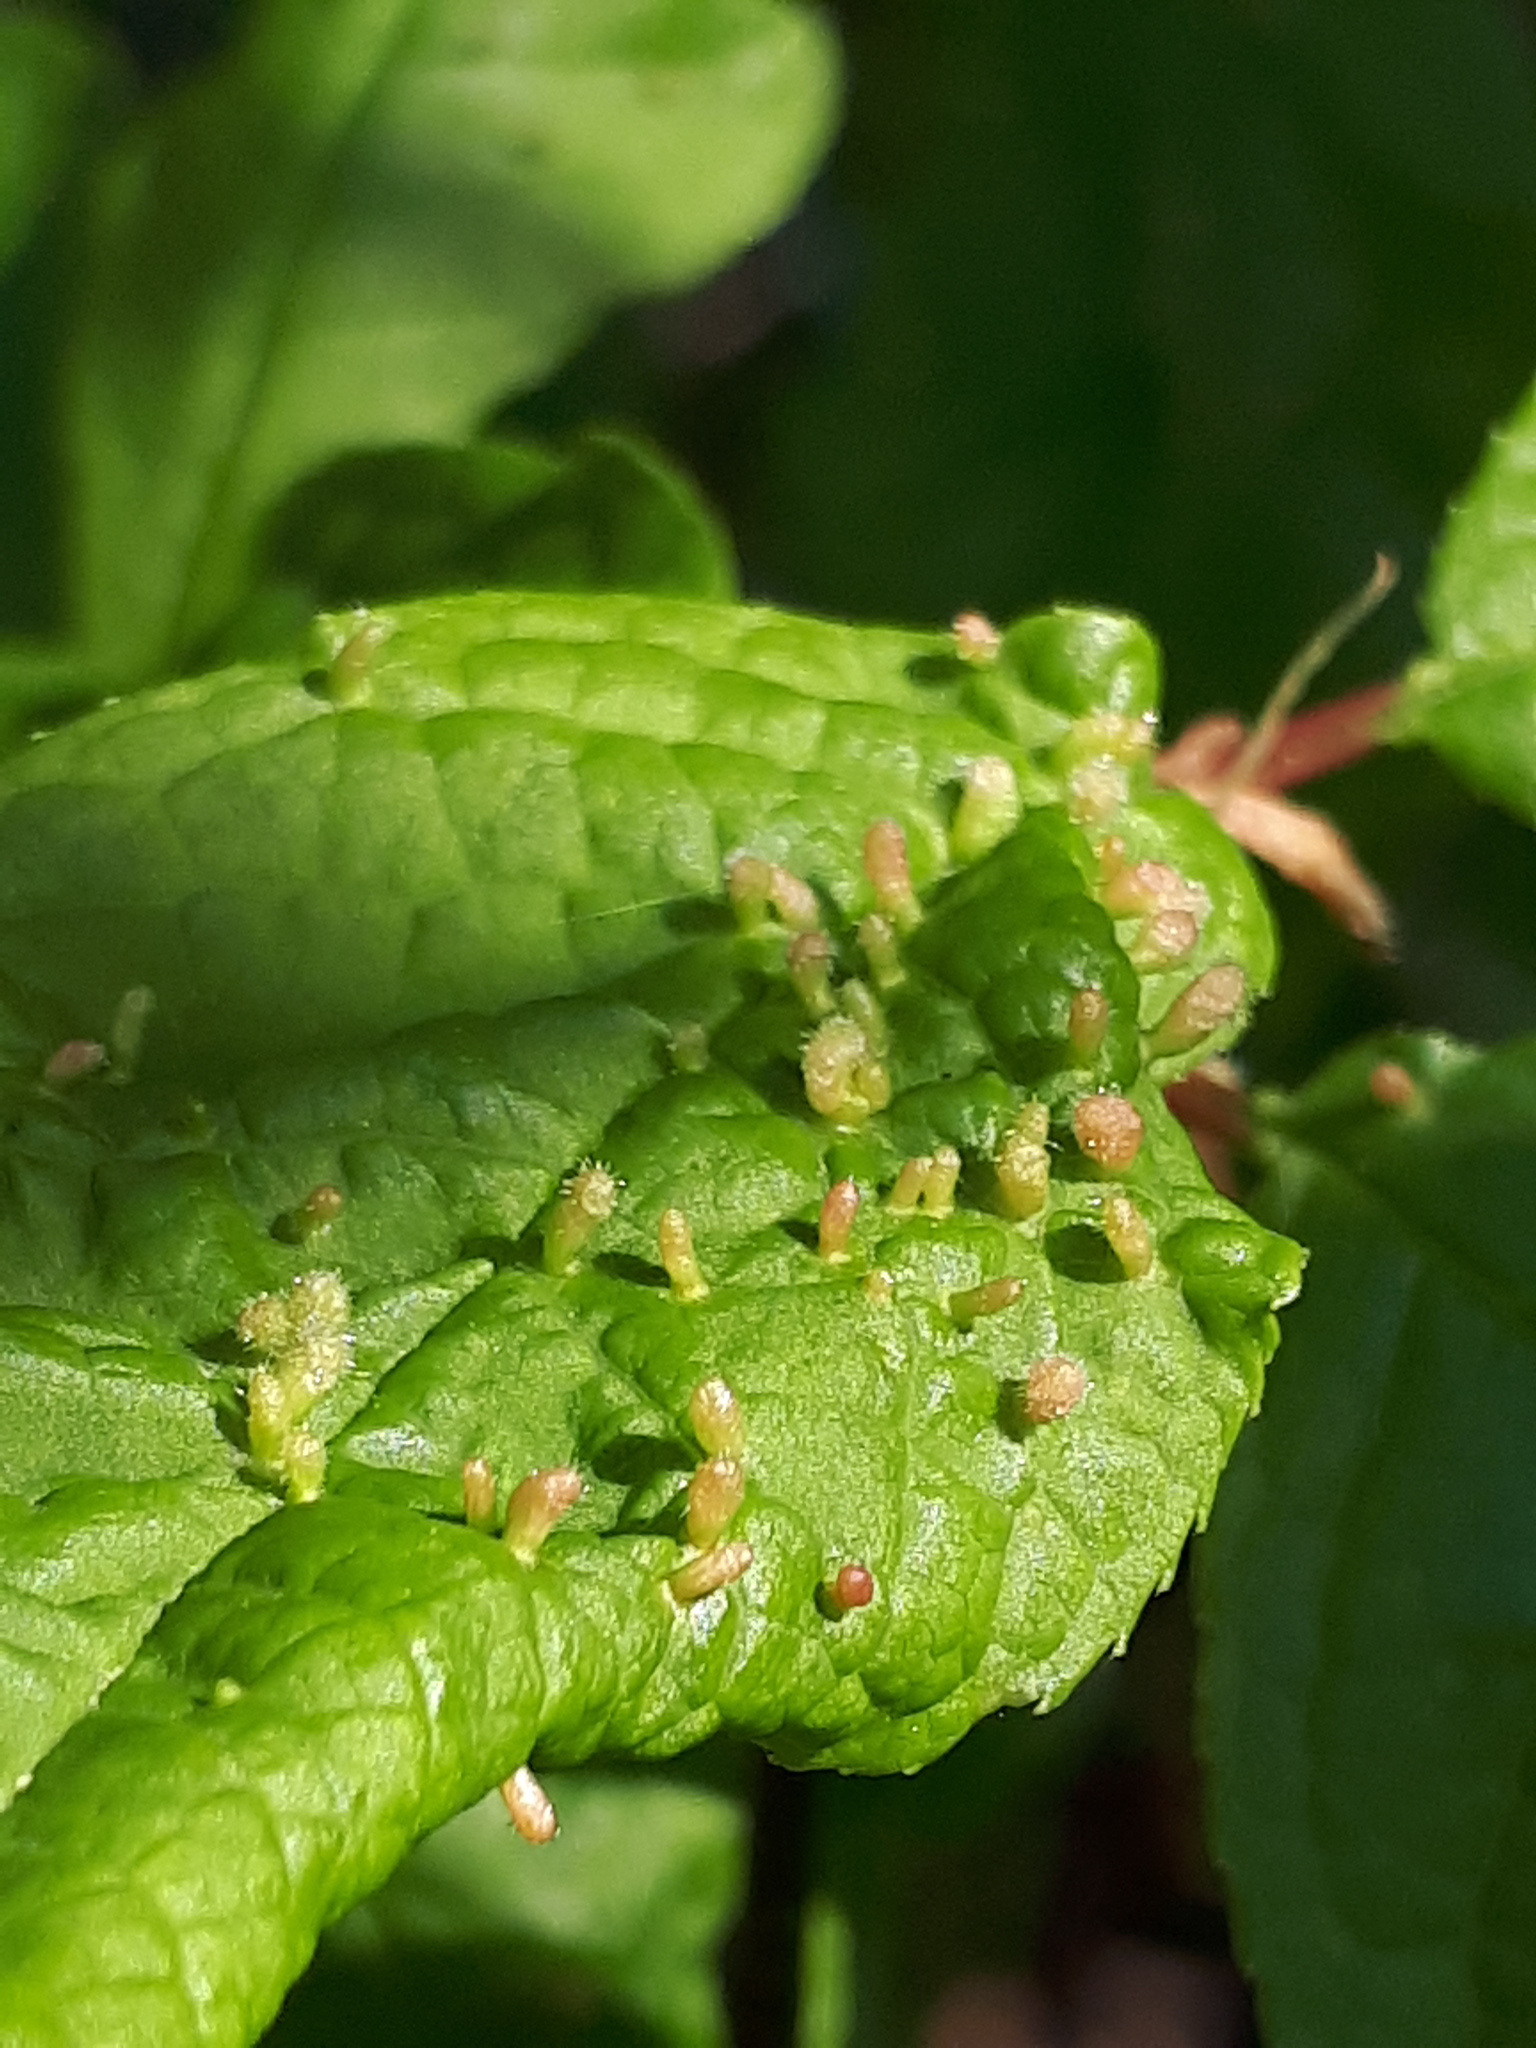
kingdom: Animalia
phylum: Arthropoda
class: Arachnida
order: Trombidiformes
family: Eriophyidae
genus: Phyllocoptes
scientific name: Phyllocoptes eupadi
